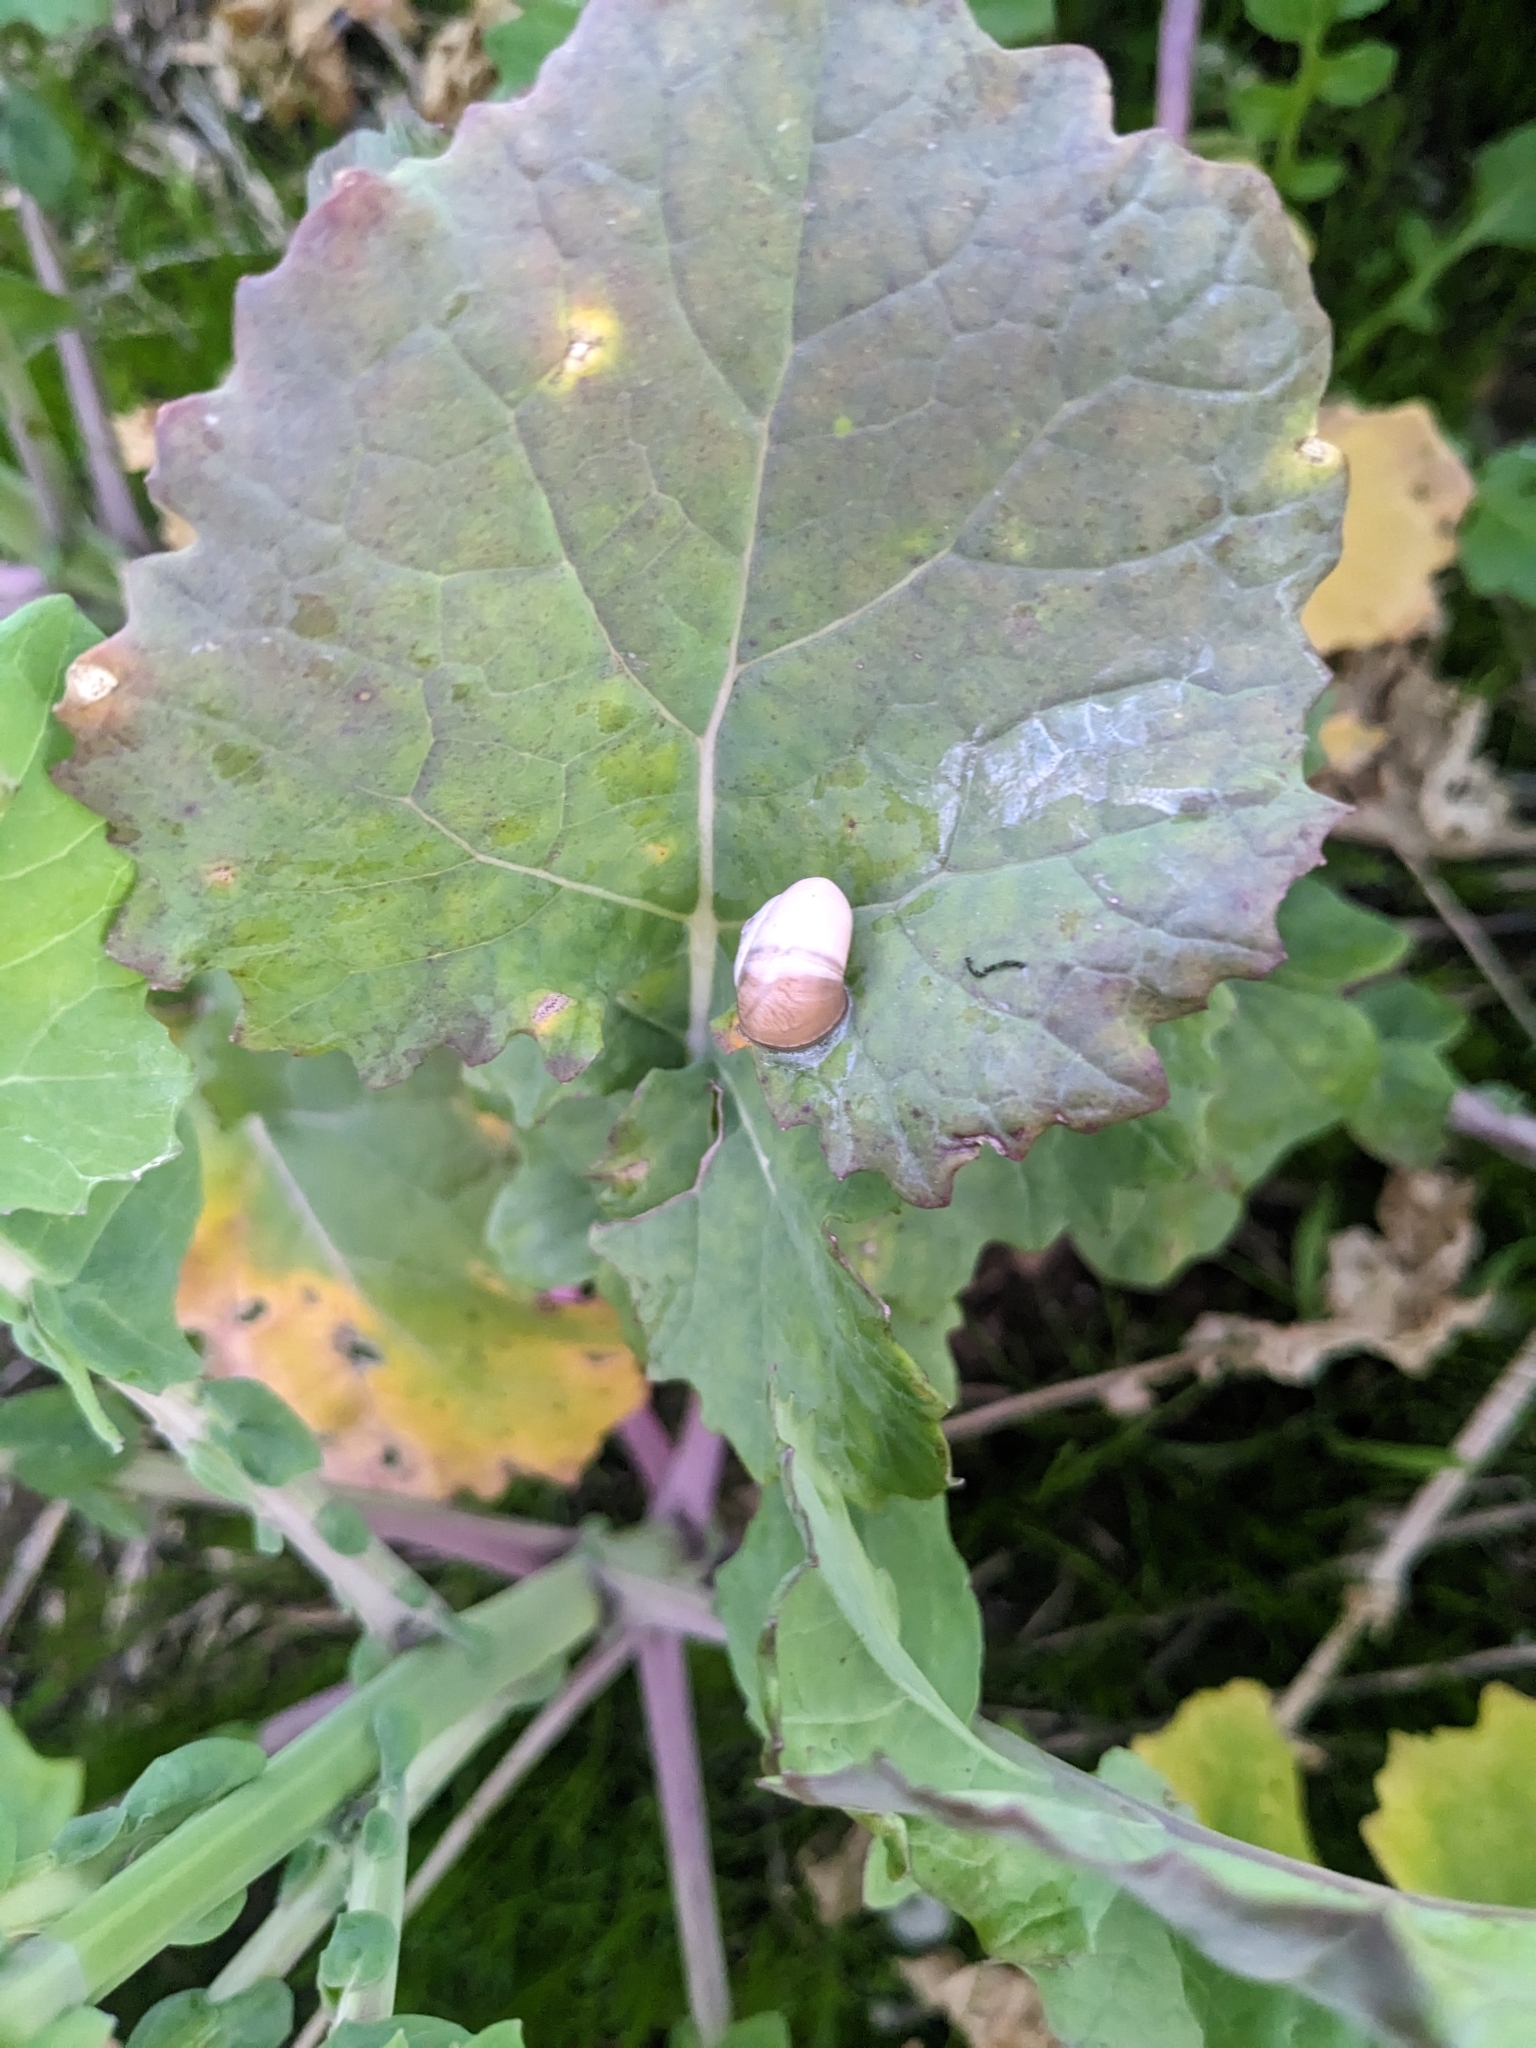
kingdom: Animalia
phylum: Mollusca
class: Gastropoda
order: Stylommatophora
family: Helicidae
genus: Theba
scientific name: Theba pisana
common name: White snail
